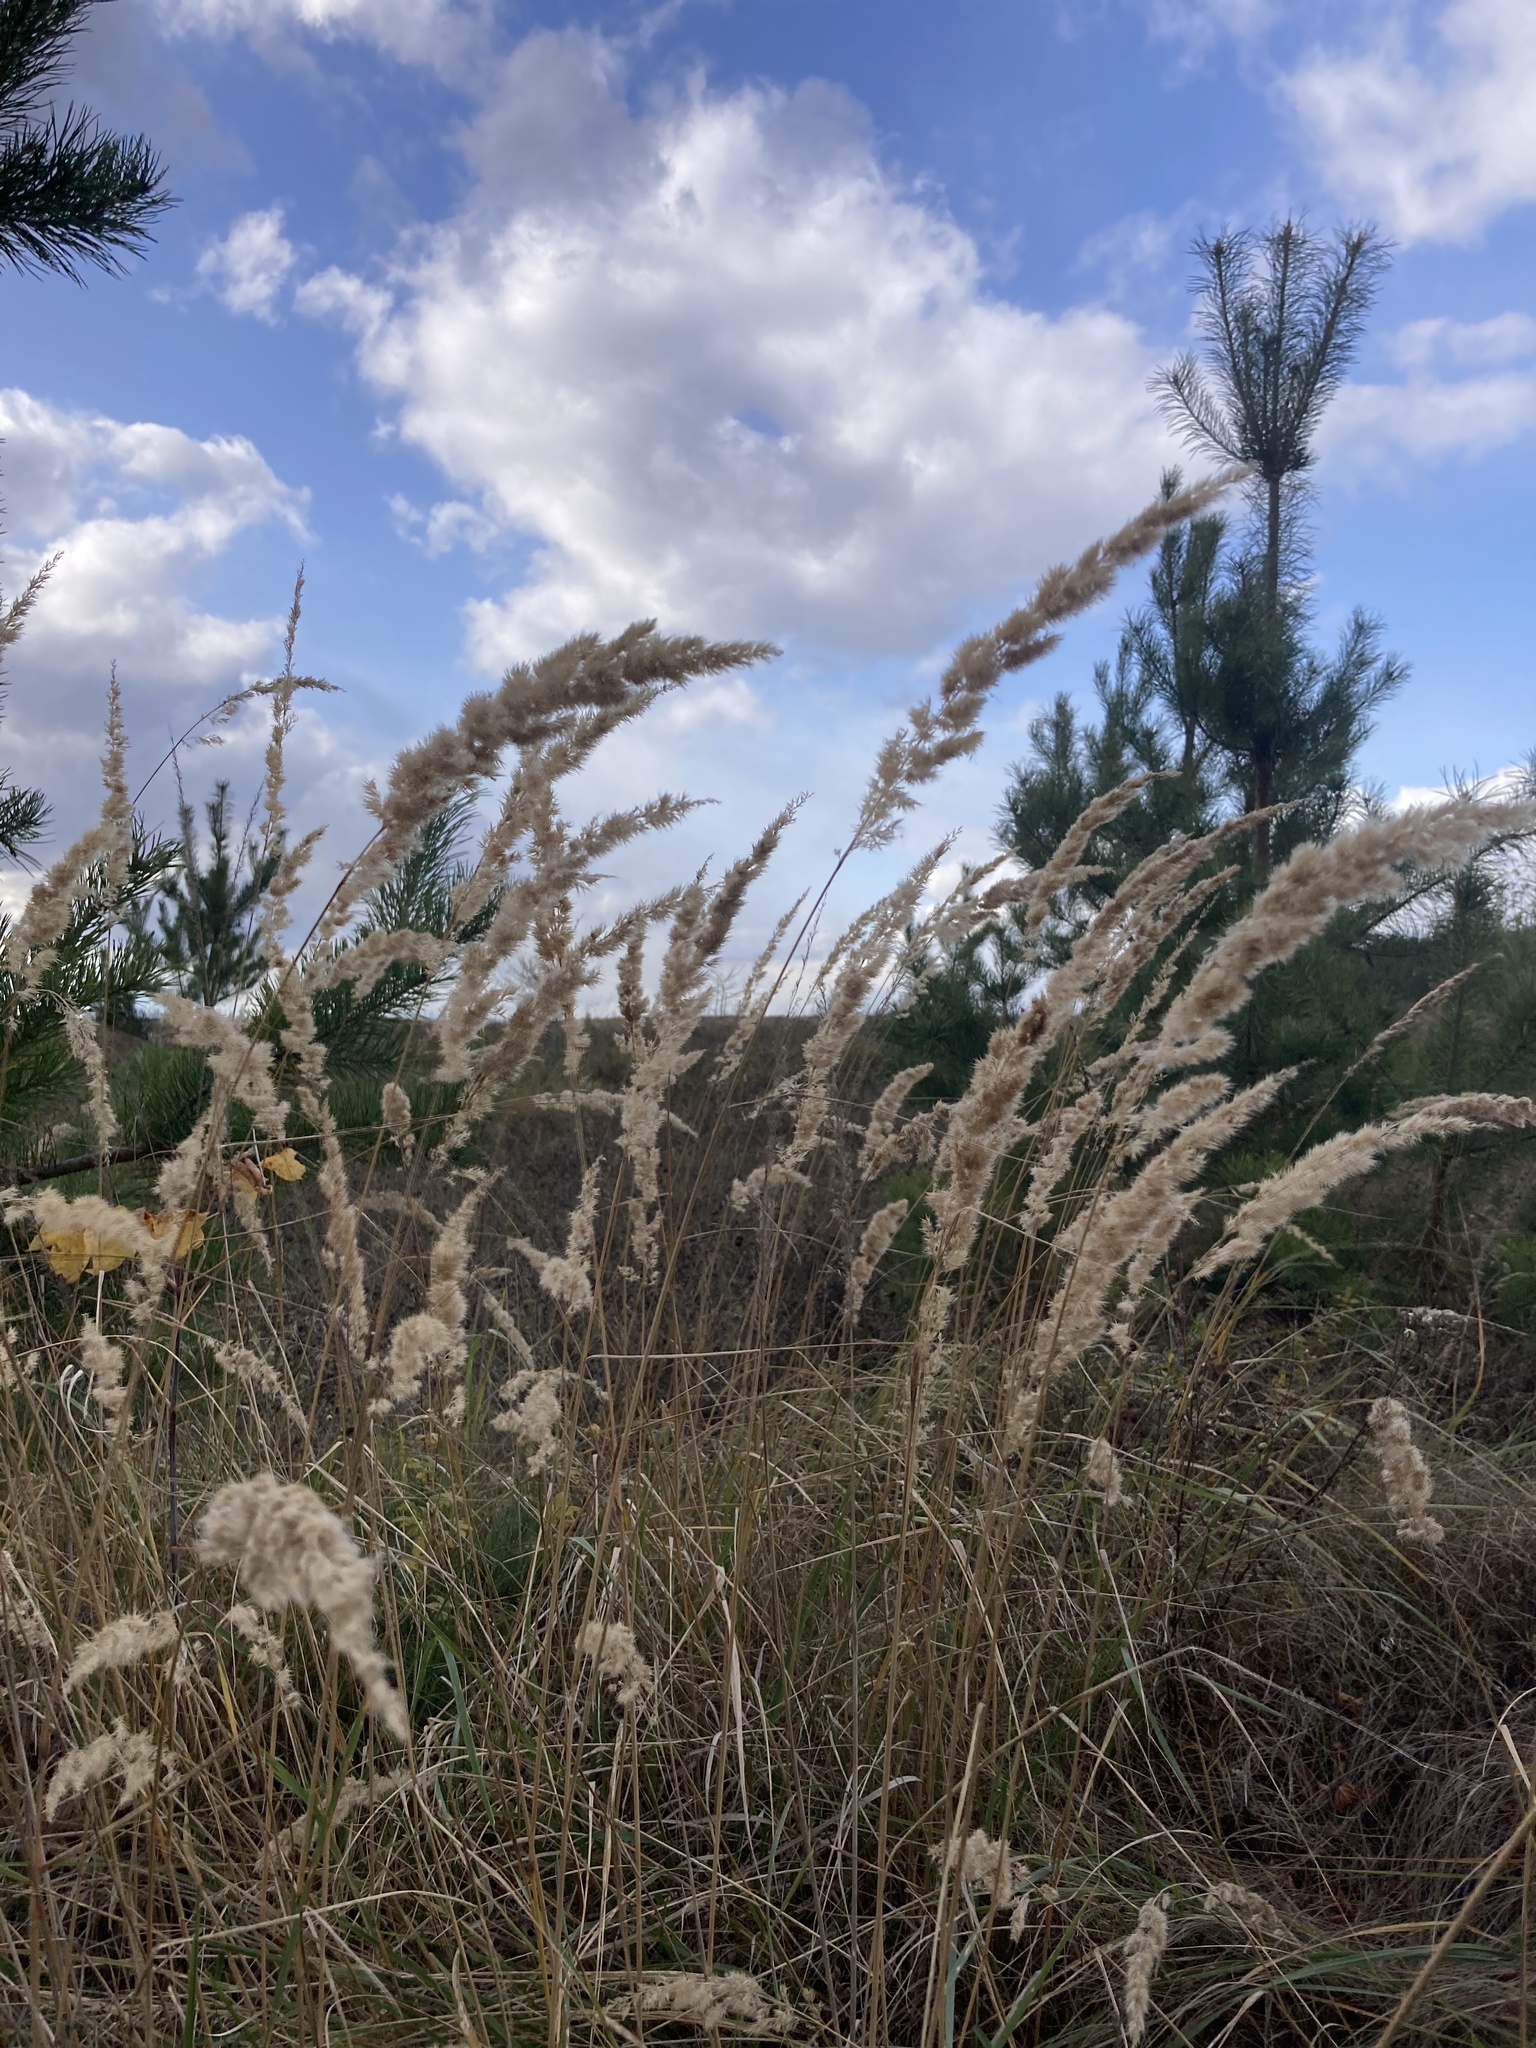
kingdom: Plantae
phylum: Tracheophyta
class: Liliopsida
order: Poales
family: Poaceae
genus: Calamagrostis
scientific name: Calamagrostis epigejos
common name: Wood small-reed
